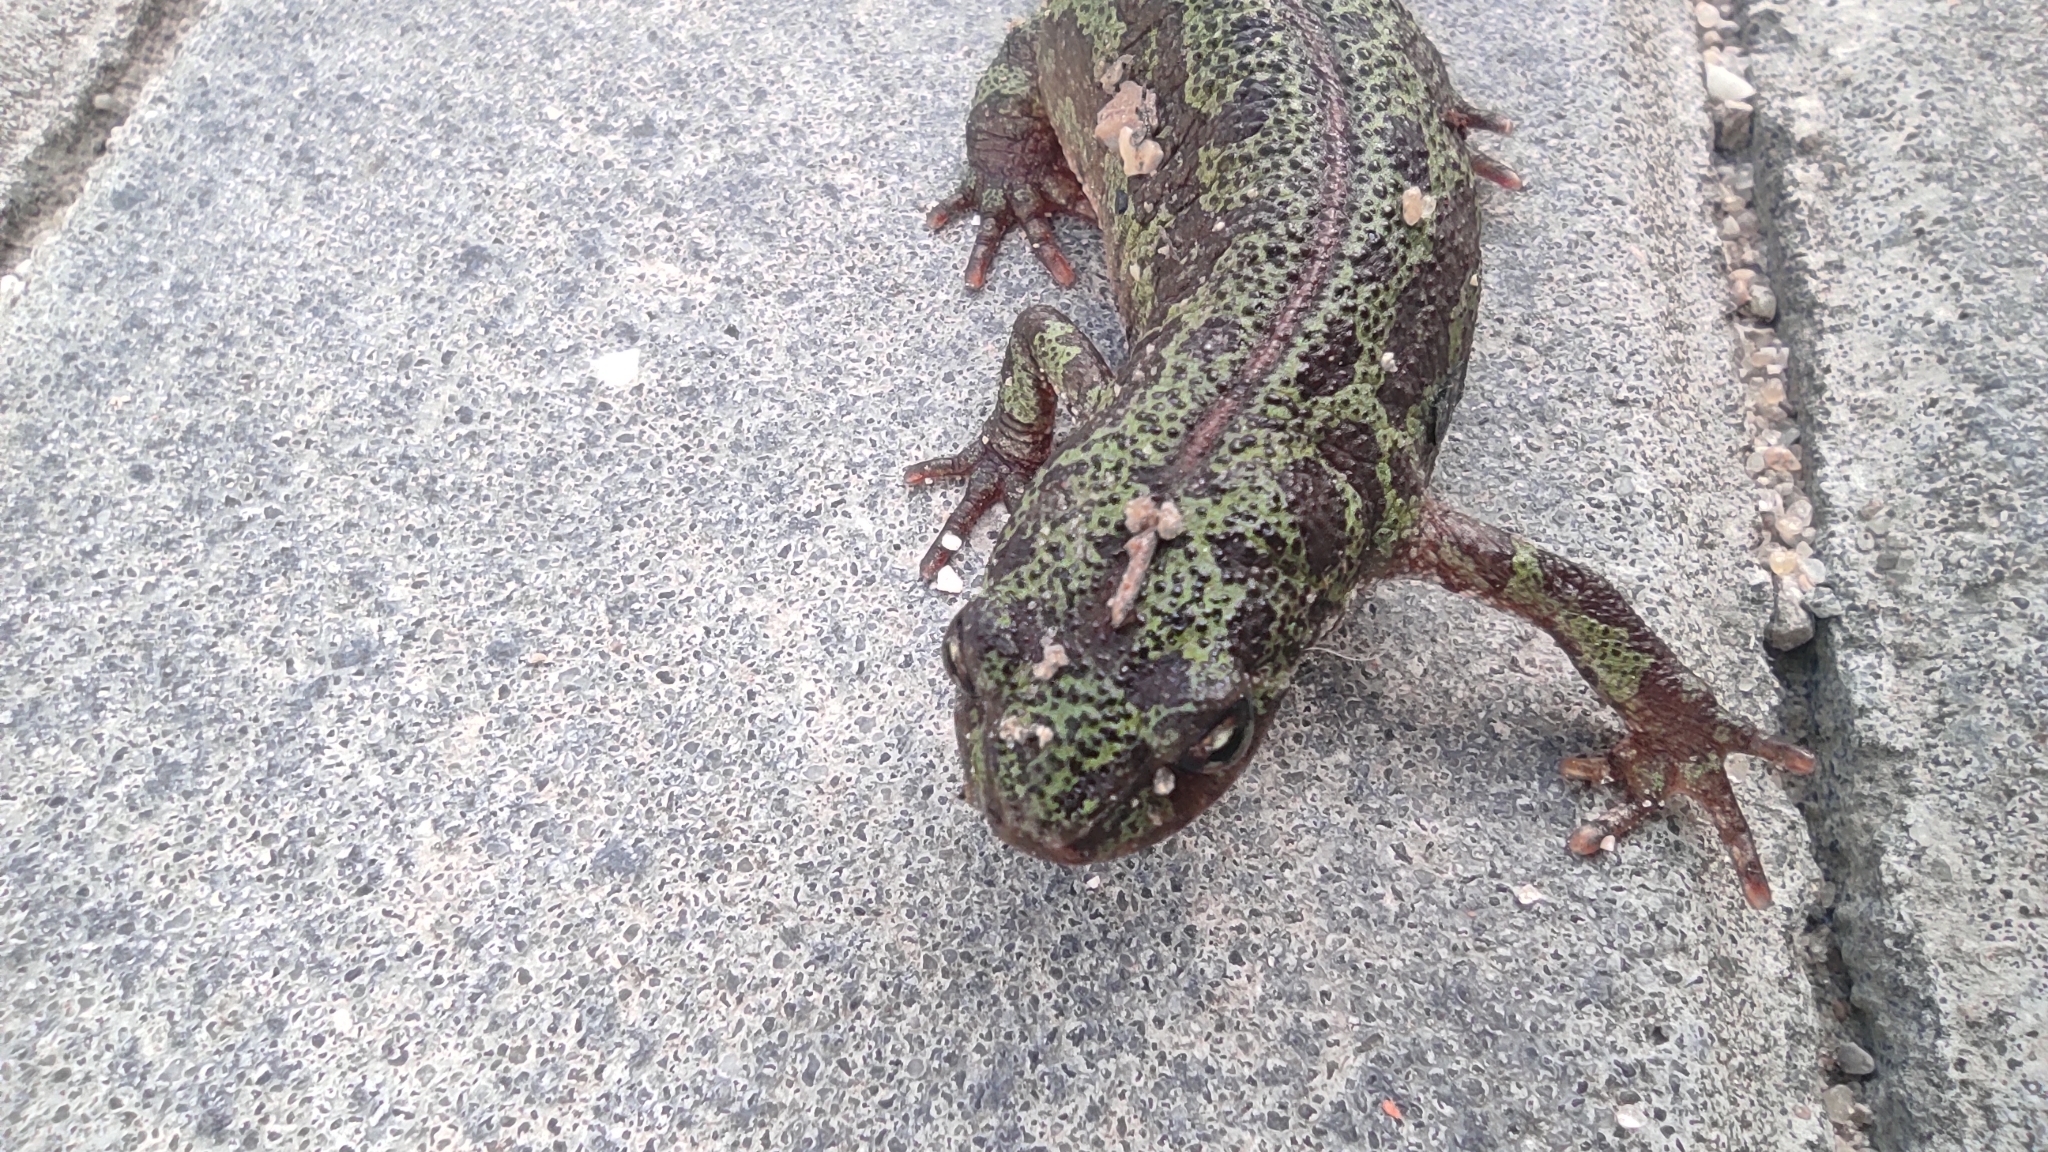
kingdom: Animalia
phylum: Chordata
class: Amphibia
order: Caudata
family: Salamandridae
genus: Triturus
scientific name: Triturus pygmaeus
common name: Southern marbled newt
